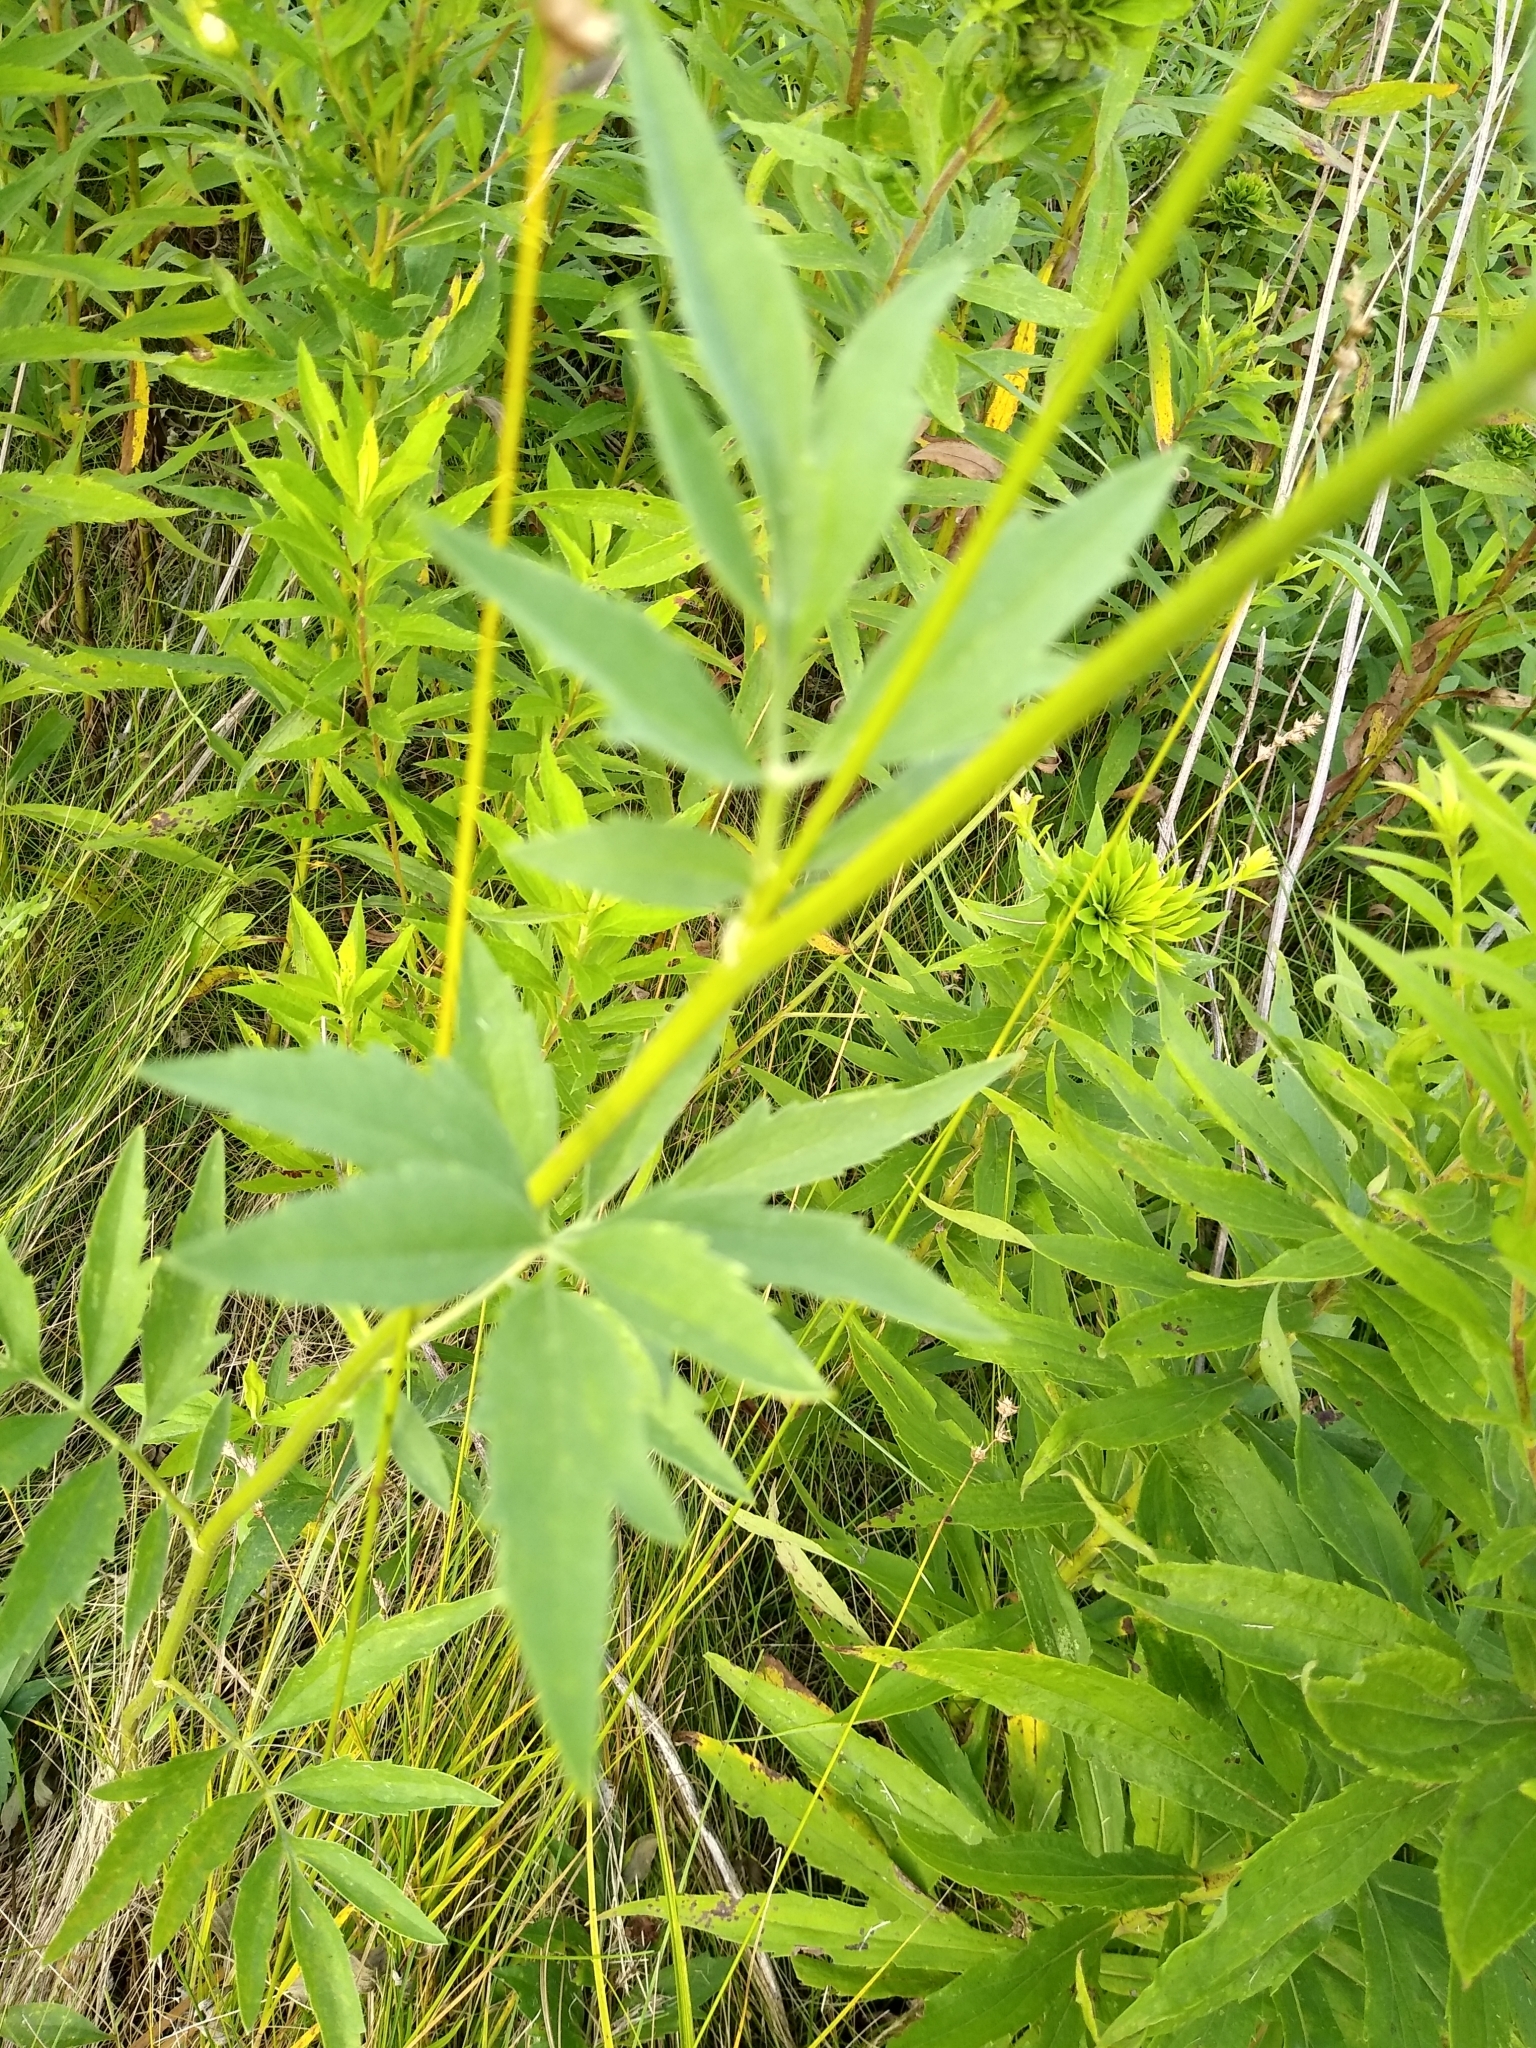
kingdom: Plantae
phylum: Tracheophyta
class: Magnoliopsida
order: Asterales
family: Asteraceae
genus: Ratibida
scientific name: Ratibida pinnata
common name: Drooping prairie-coneflower
